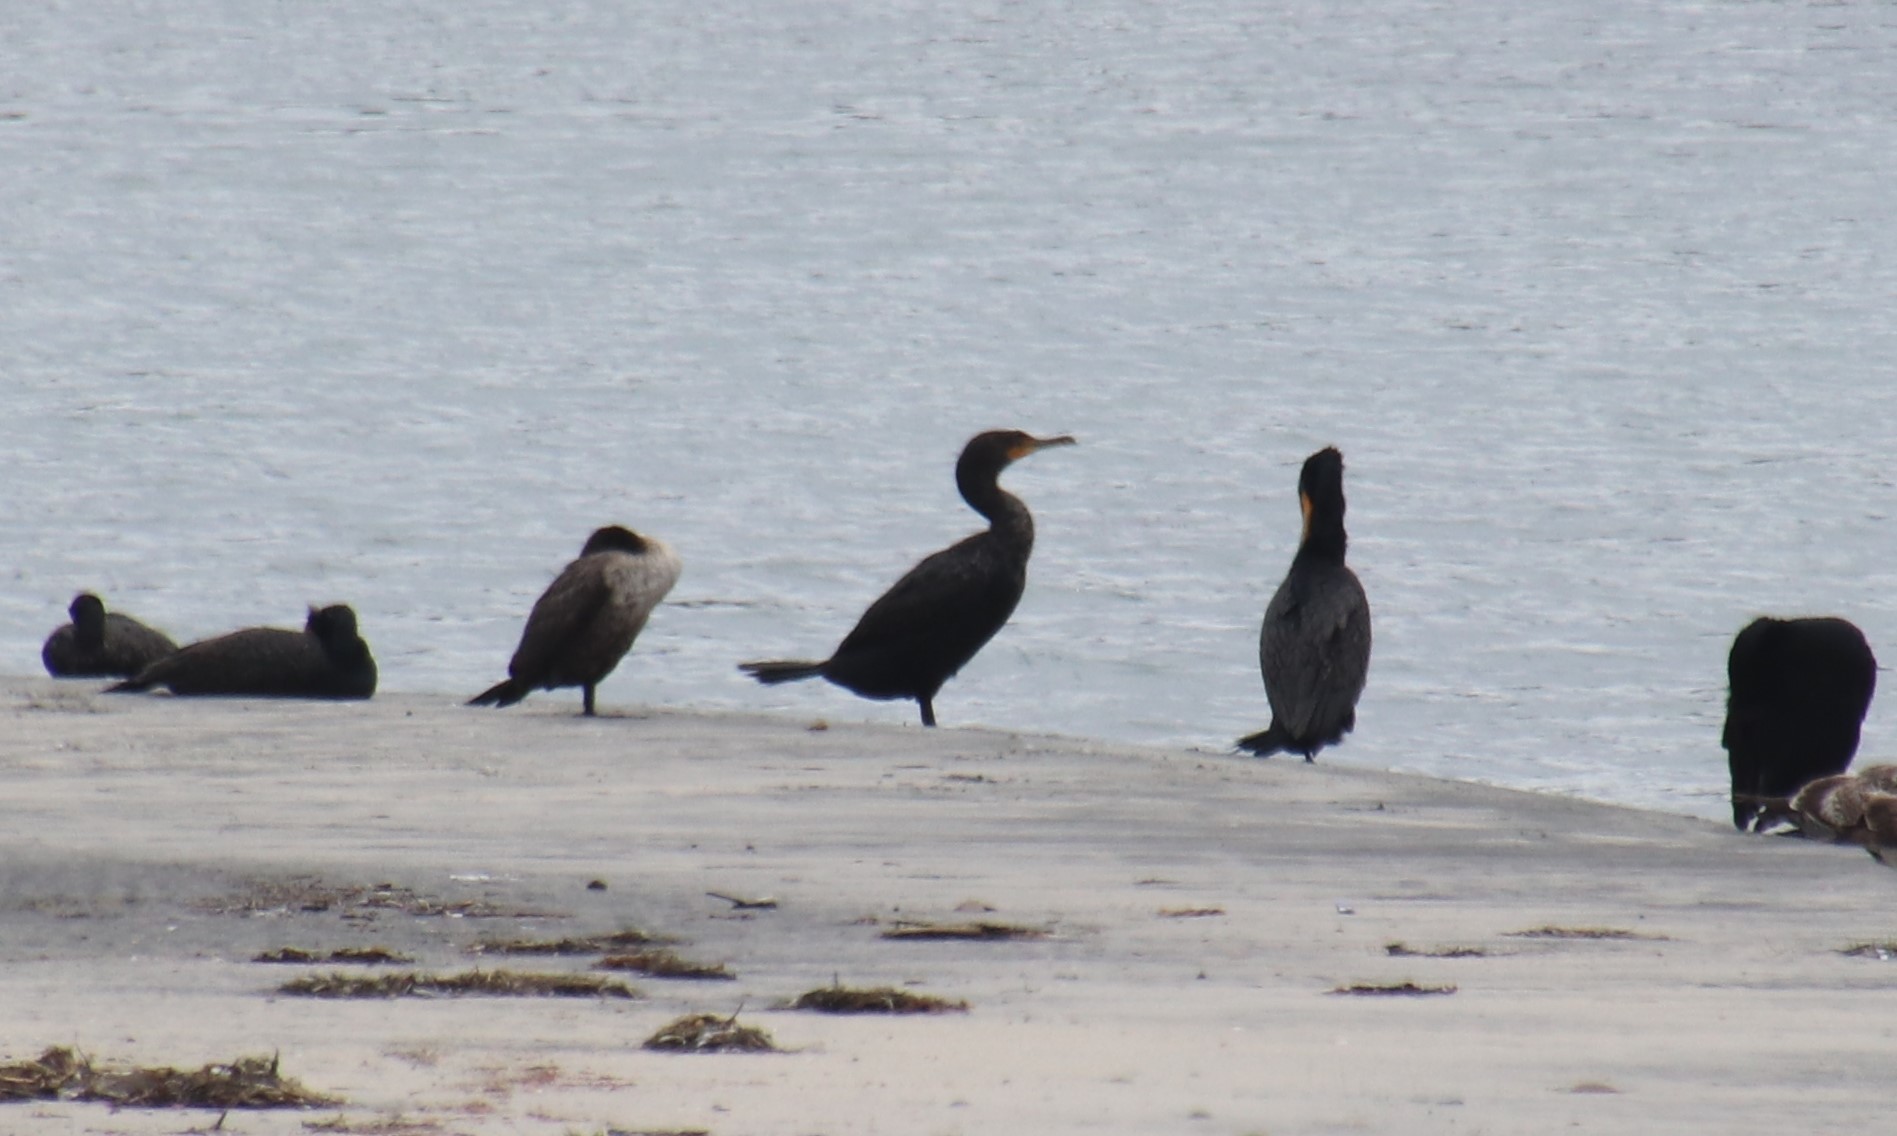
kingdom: Animalia
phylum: Chordata
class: Aves
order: Suliformes
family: Phalacrocoracidae
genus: Phalacrocorax
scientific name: Phalacrocorax auritus
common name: Double-crested cormorant
